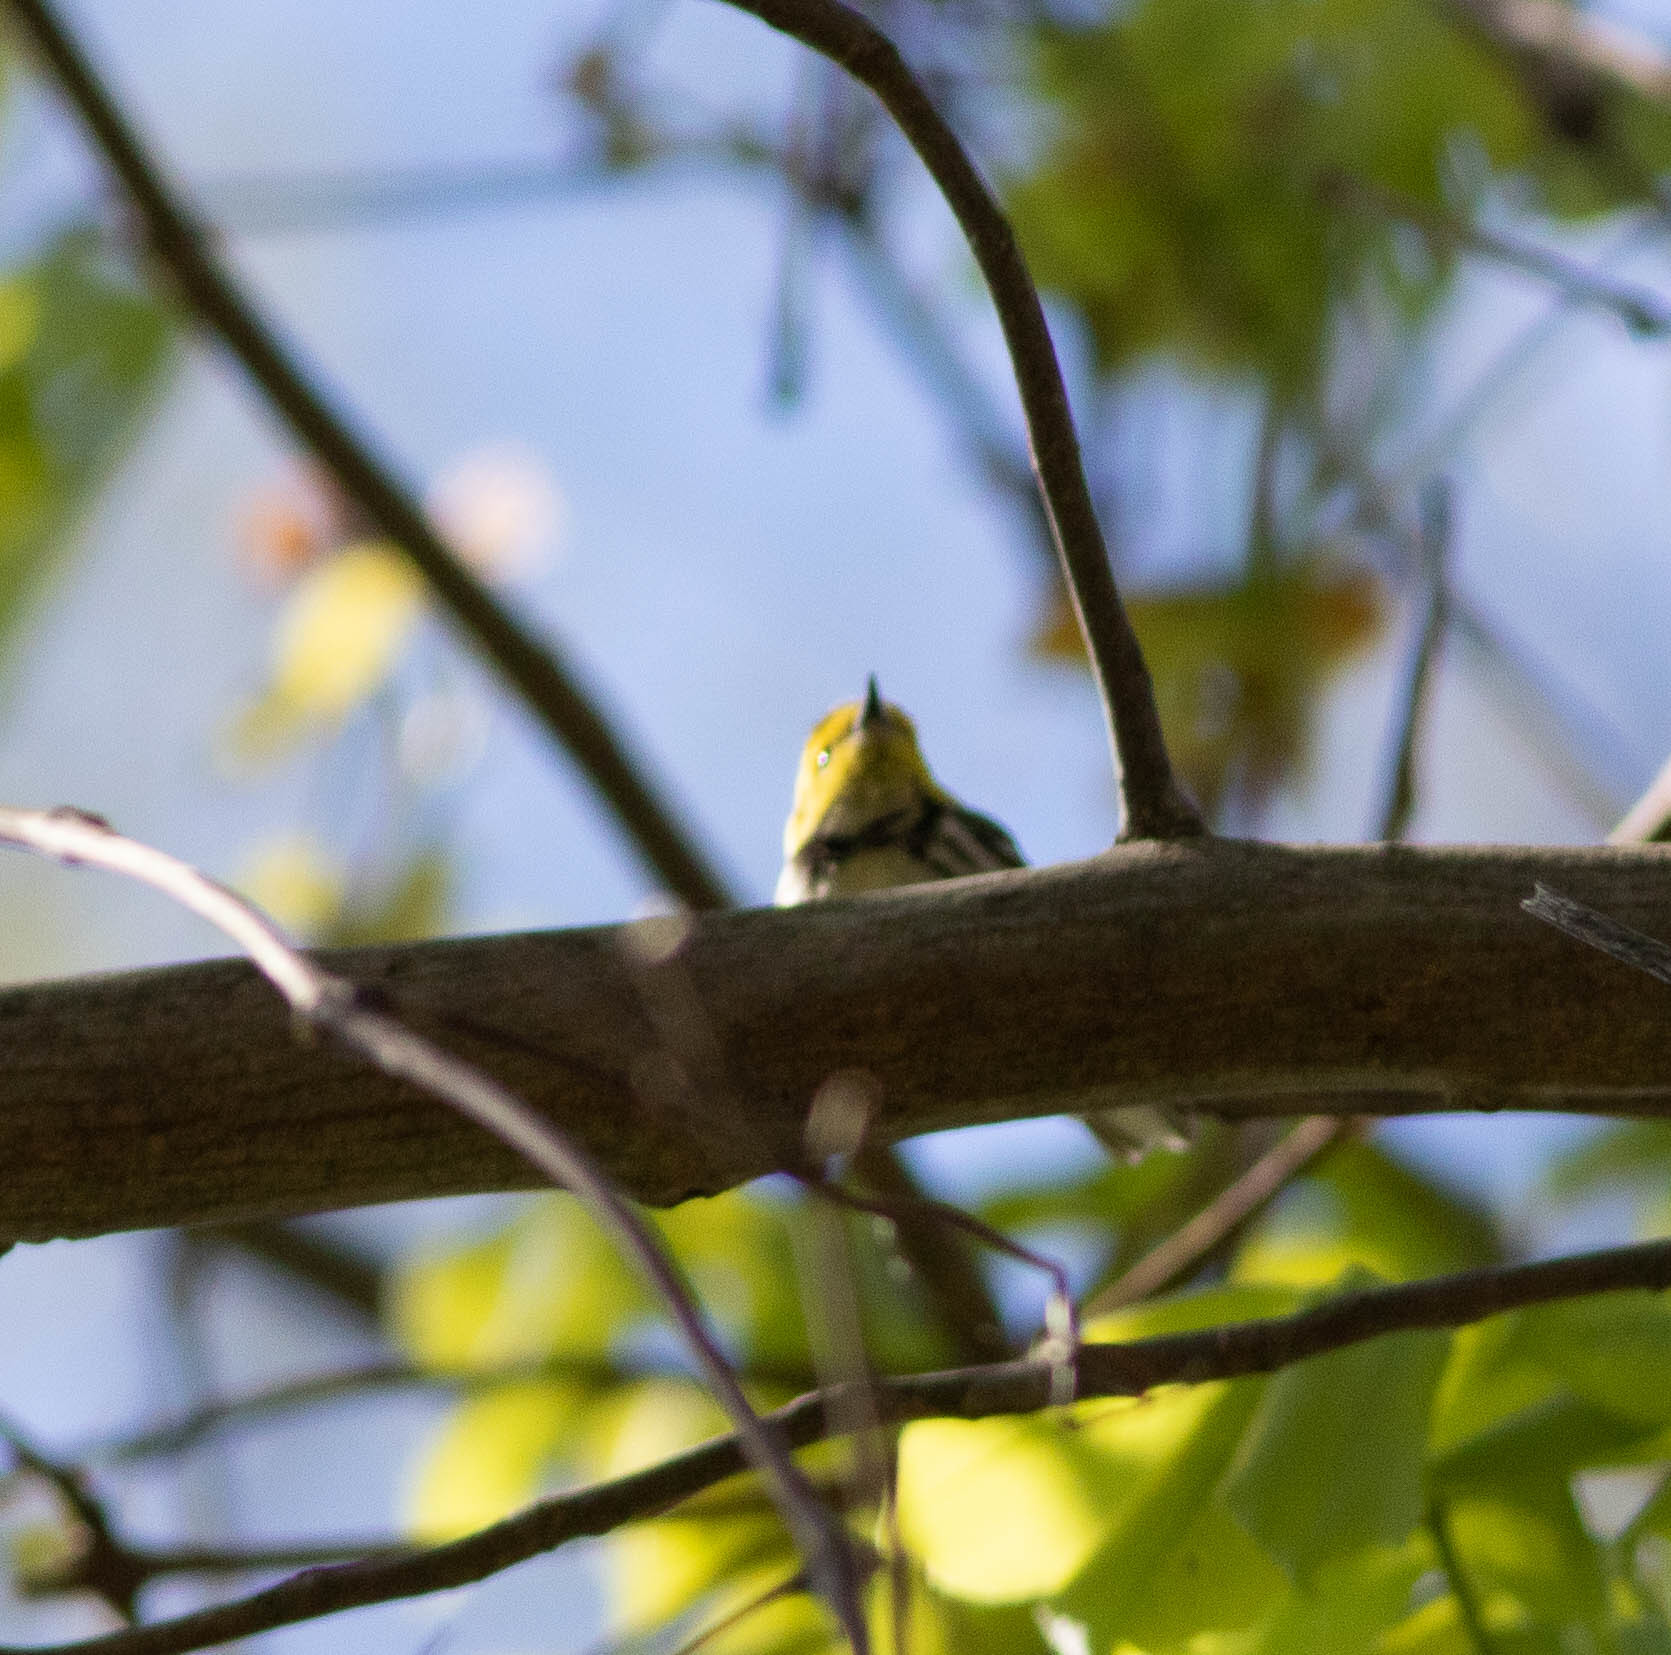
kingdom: Animalia
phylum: Chordata
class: Aves
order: Passeriformes
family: Parulidae
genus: Setophaga
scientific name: Setophaga virens
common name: Black-throated green warbler
